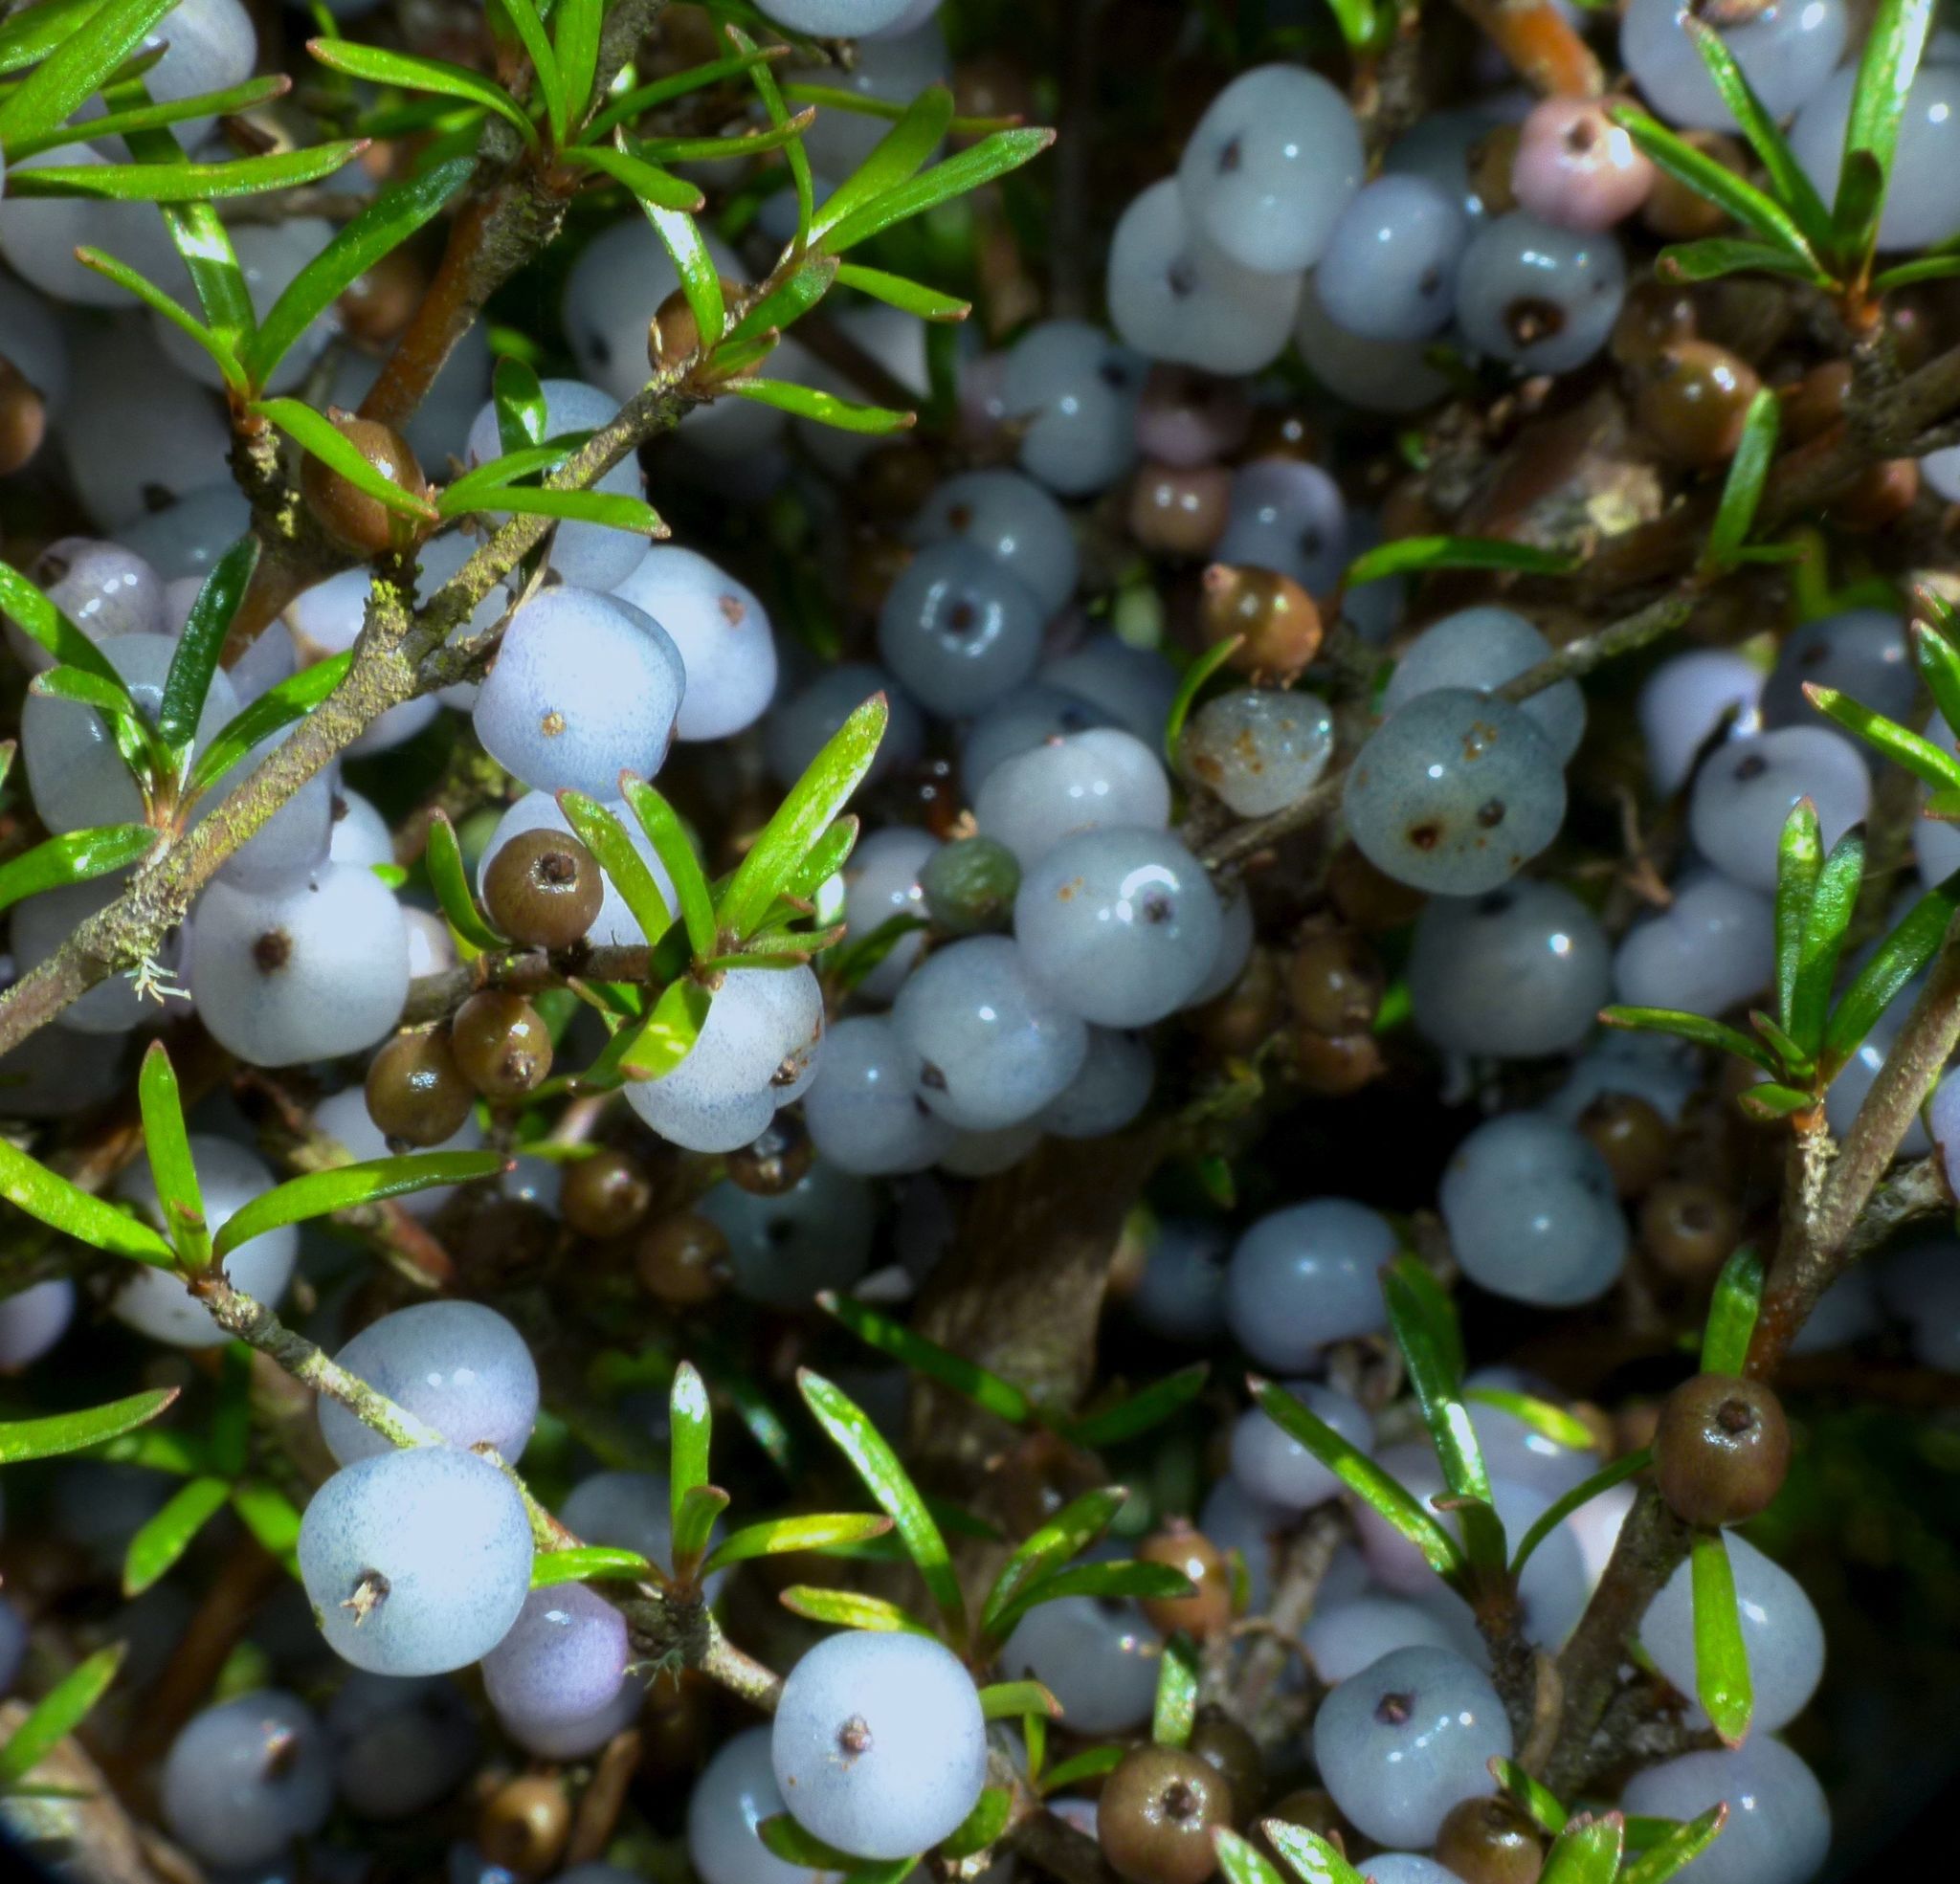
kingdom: Plantae
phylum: Tracheophyta
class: Magnoliopsida
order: Gentianales
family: Rubiaceae
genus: Coprosma
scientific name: Coprosma rugosa
